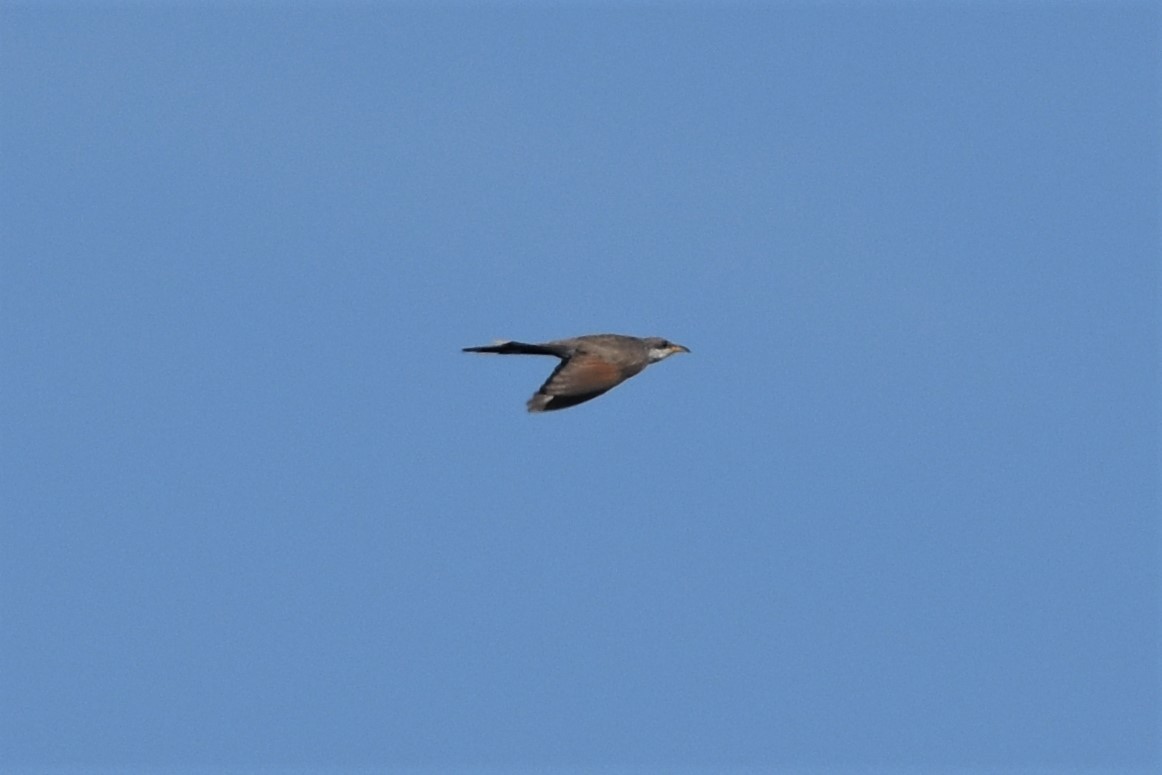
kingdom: Animalia
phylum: Chordata
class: Aves
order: Cuculiformes
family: Cuculidae
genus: Coccyzus
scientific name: Coccyzus americanus
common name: Yellow-billed cuckoo
